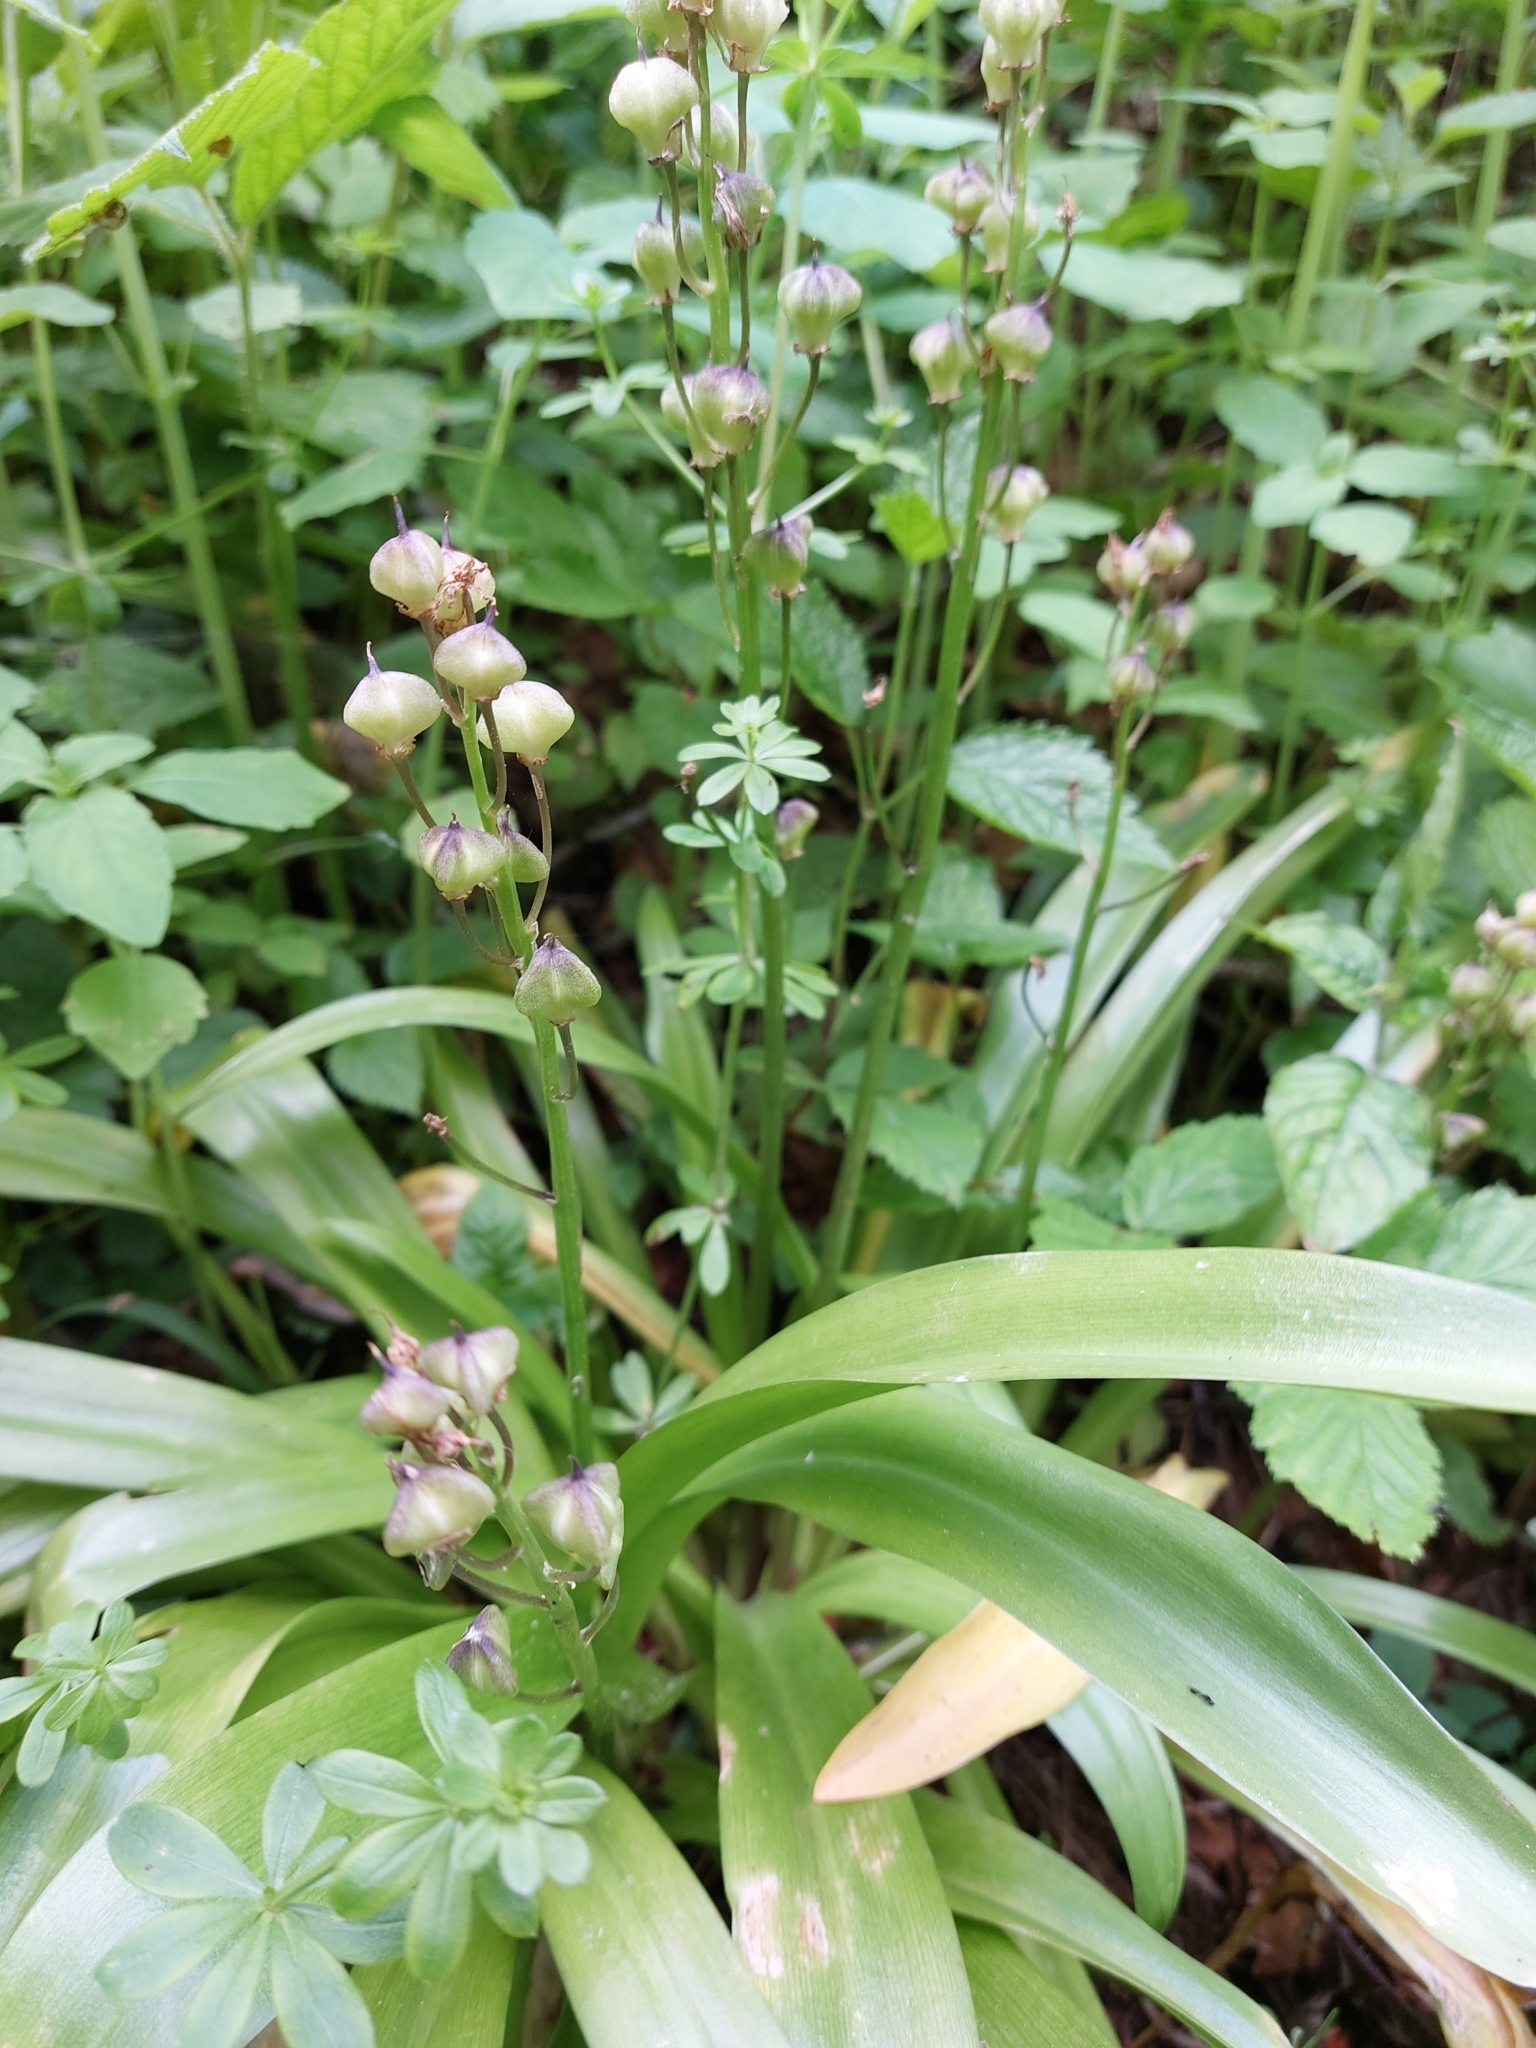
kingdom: Plantae
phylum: Tracheophyta
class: Liliopsida
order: Asparagales
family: Asparagaceae
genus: Scilla
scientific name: Scilla lilio-hyacinthus
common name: Pyrenean squill
